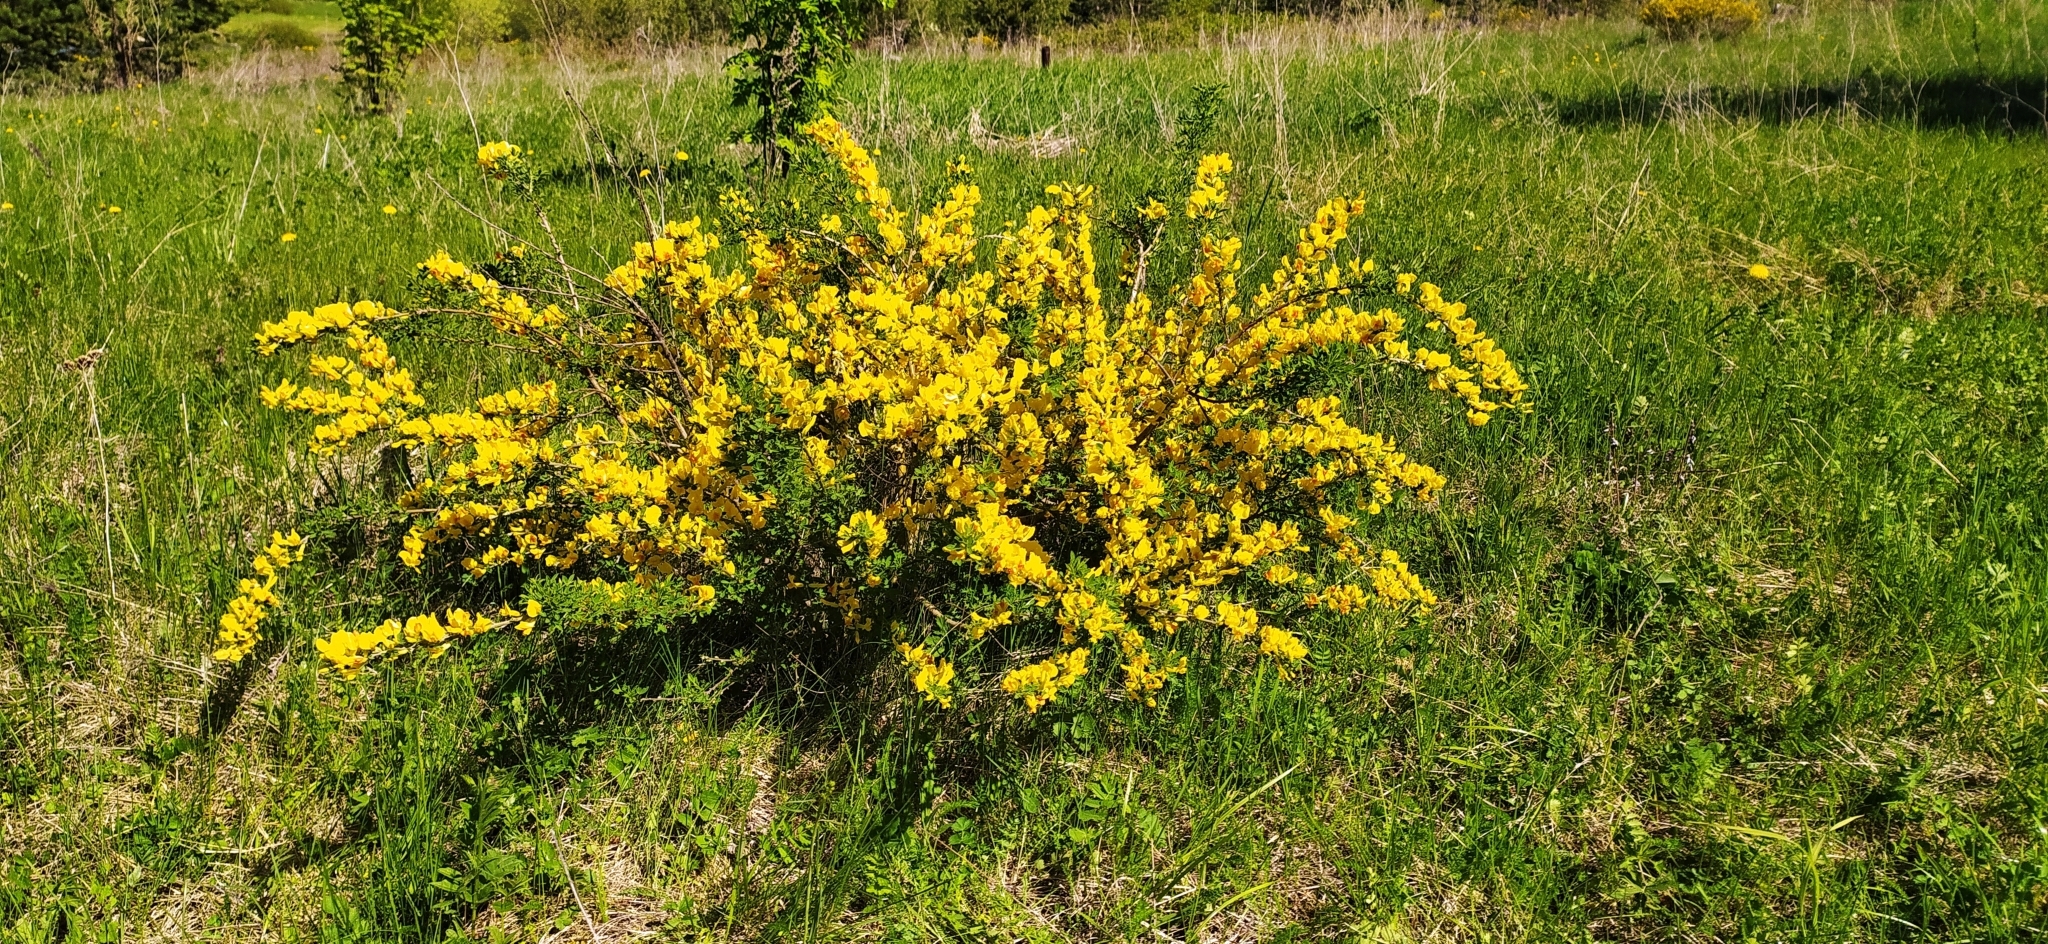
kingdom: Plantae
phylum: Tracheophyta
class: Magnoliopsida
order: Fabales
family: Fabaceae
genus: Chamaecytisus
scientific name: Chamaecytisus ruthenicus
